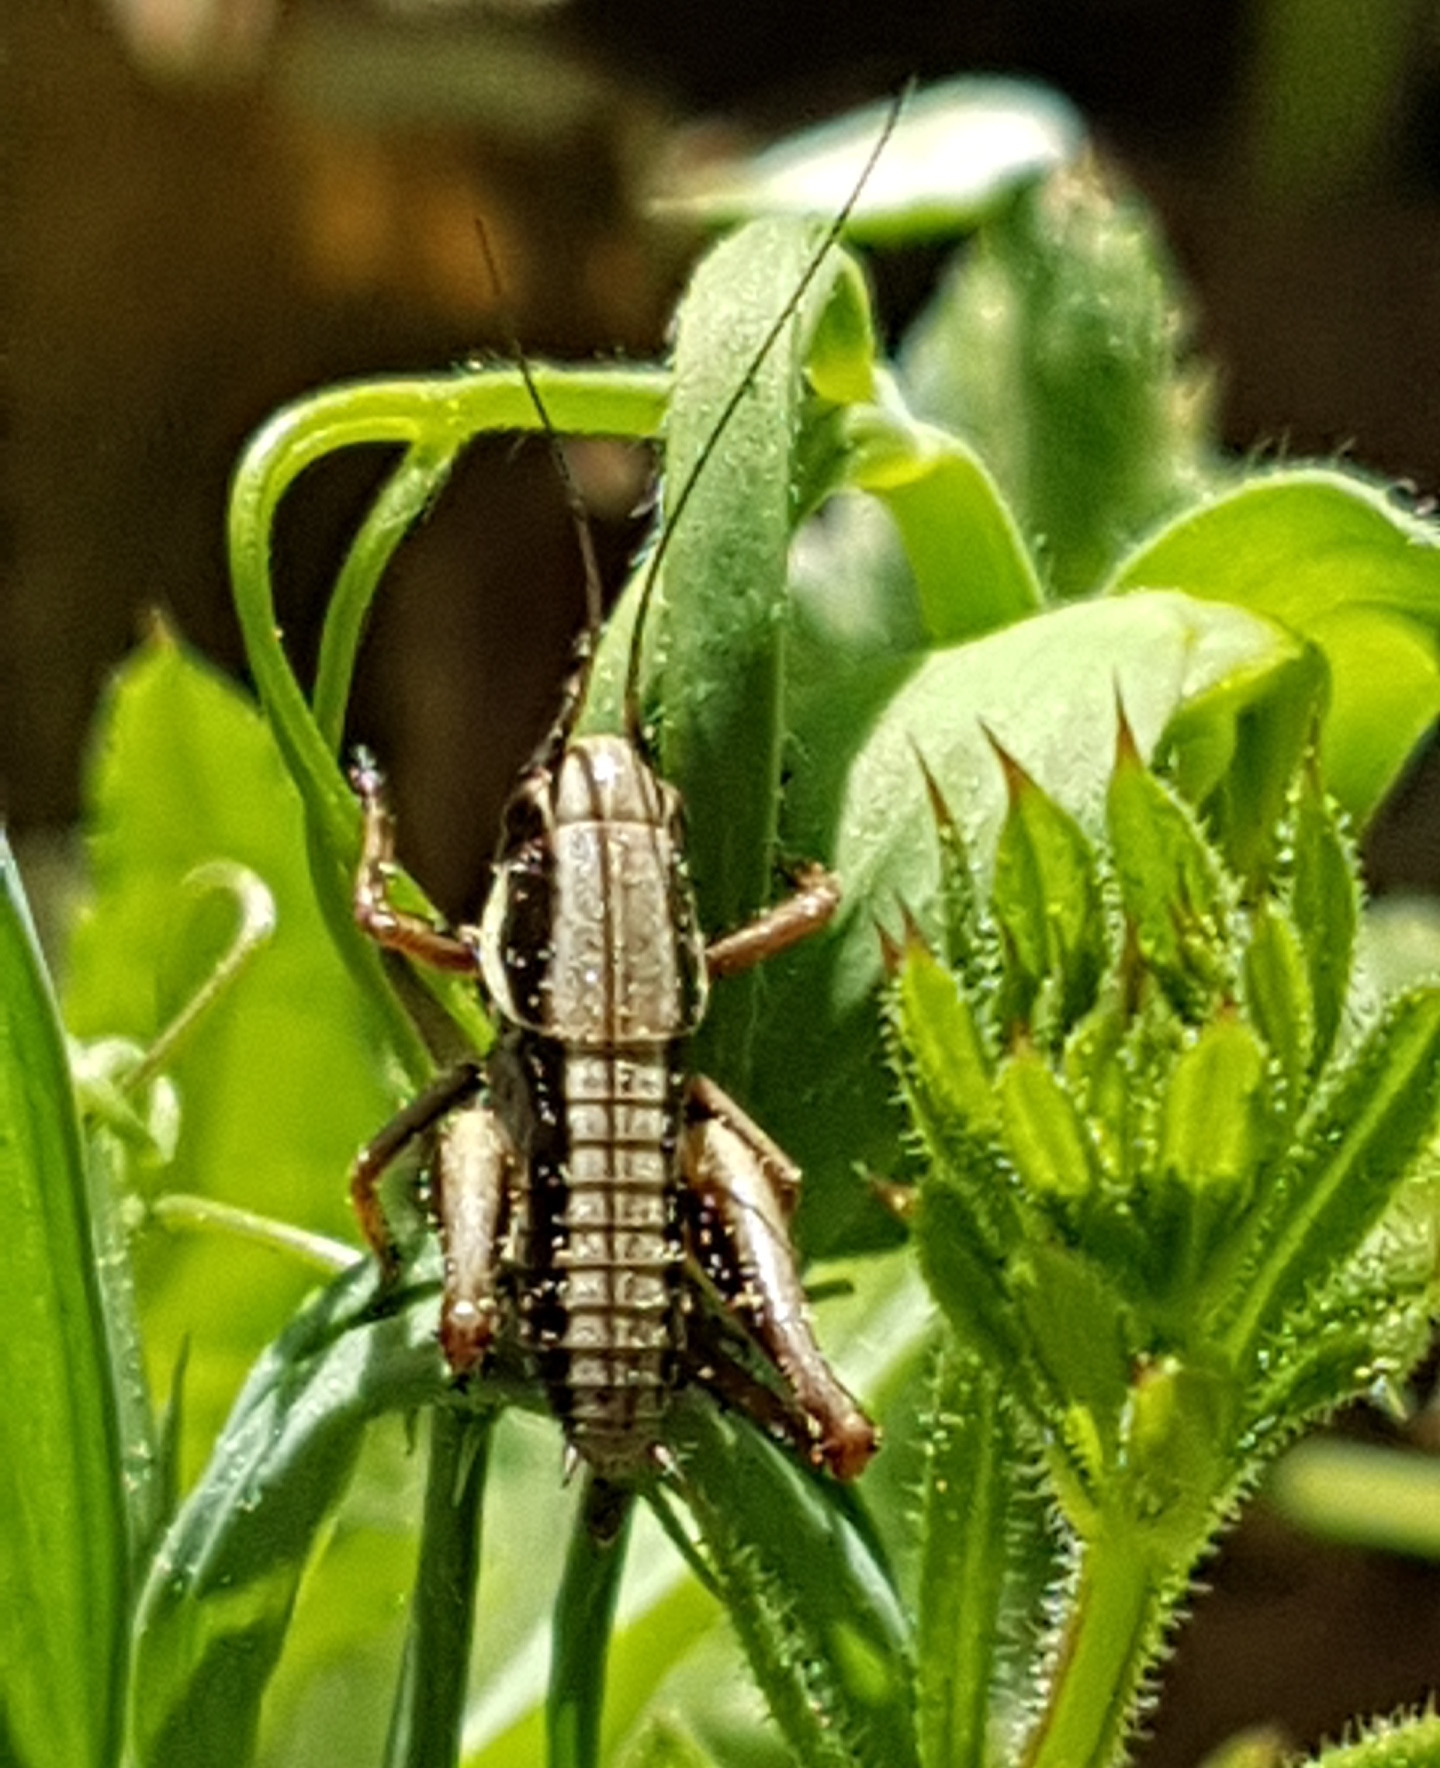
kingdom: Animalia
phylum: Arthropoda
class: Insecta
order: Orthoptera
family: Tettigoniidae
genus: Pholidoptera
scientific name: Pholidoptera femorata
